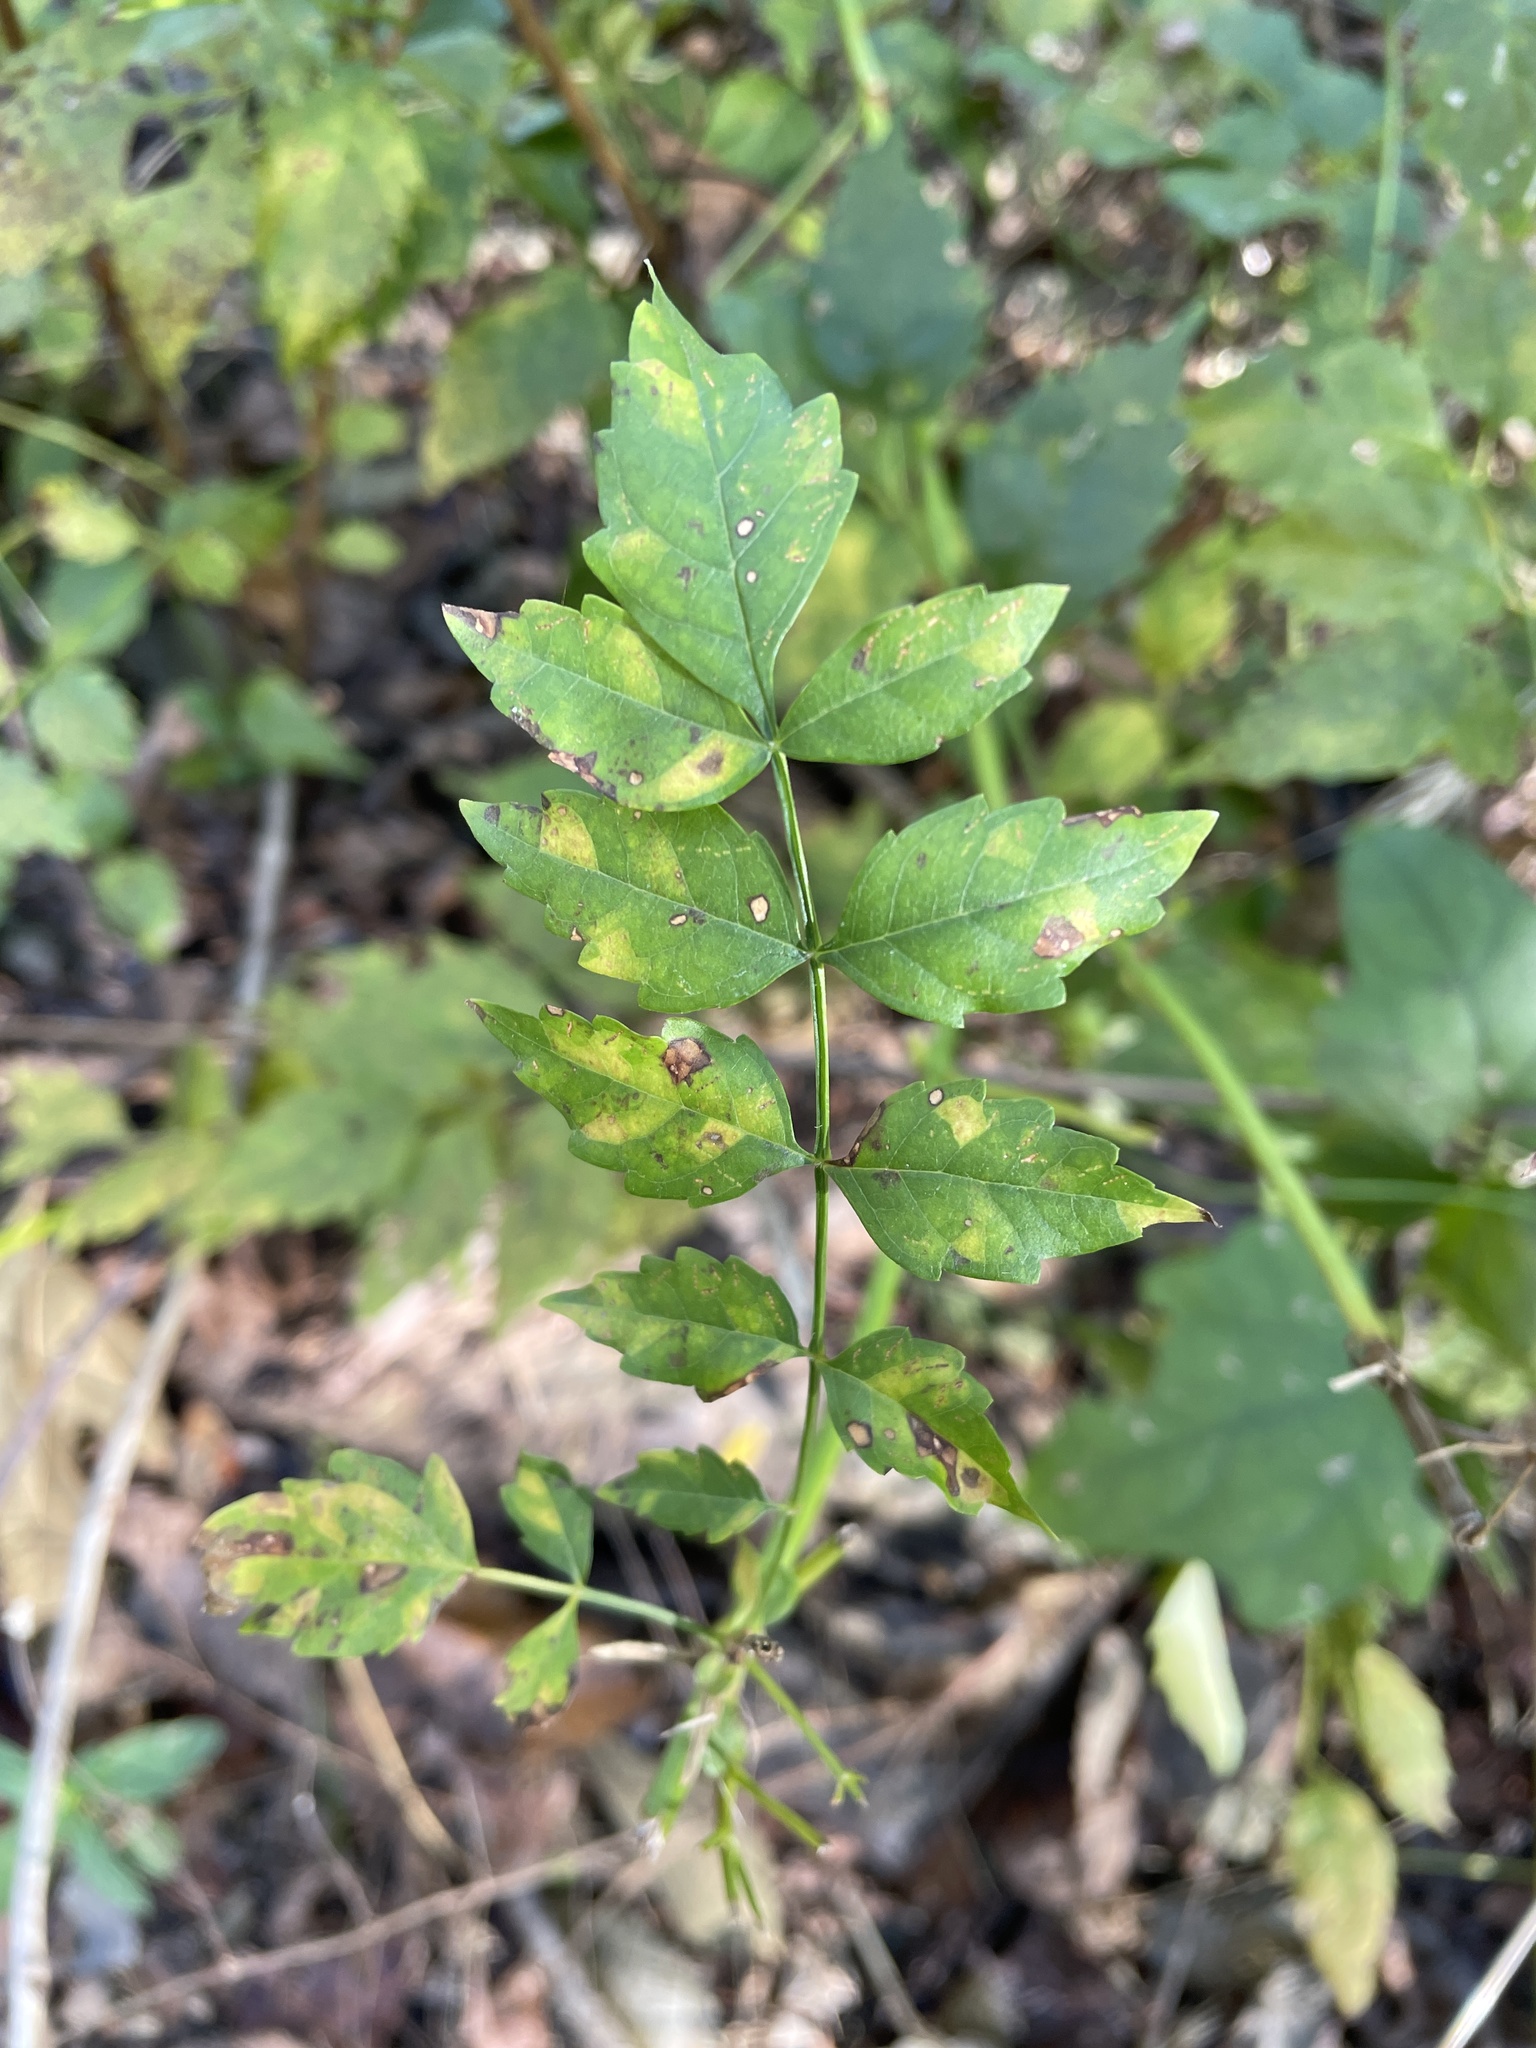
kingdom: Plantae
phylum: Tracheophyta
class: Magnoliopsida
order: Lamiales
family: Bignoniaceae
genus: Campsis
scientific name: Campsis radicans
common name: Trumpet-creeper
